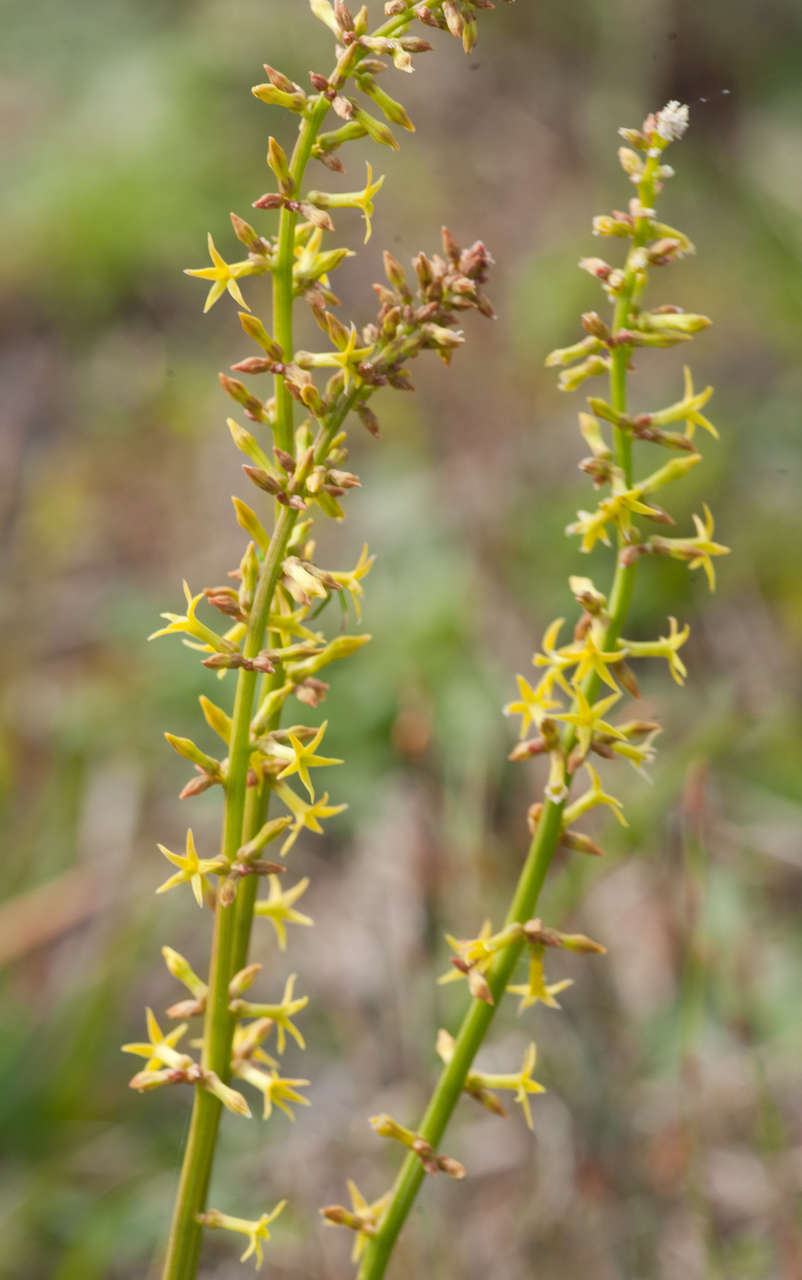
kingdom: Plantae
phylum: Tracheophyta
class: Magnoliopsida
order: Celastrales
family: Celastraceae
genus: Stackhousia
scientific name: Stackhousia viminea
